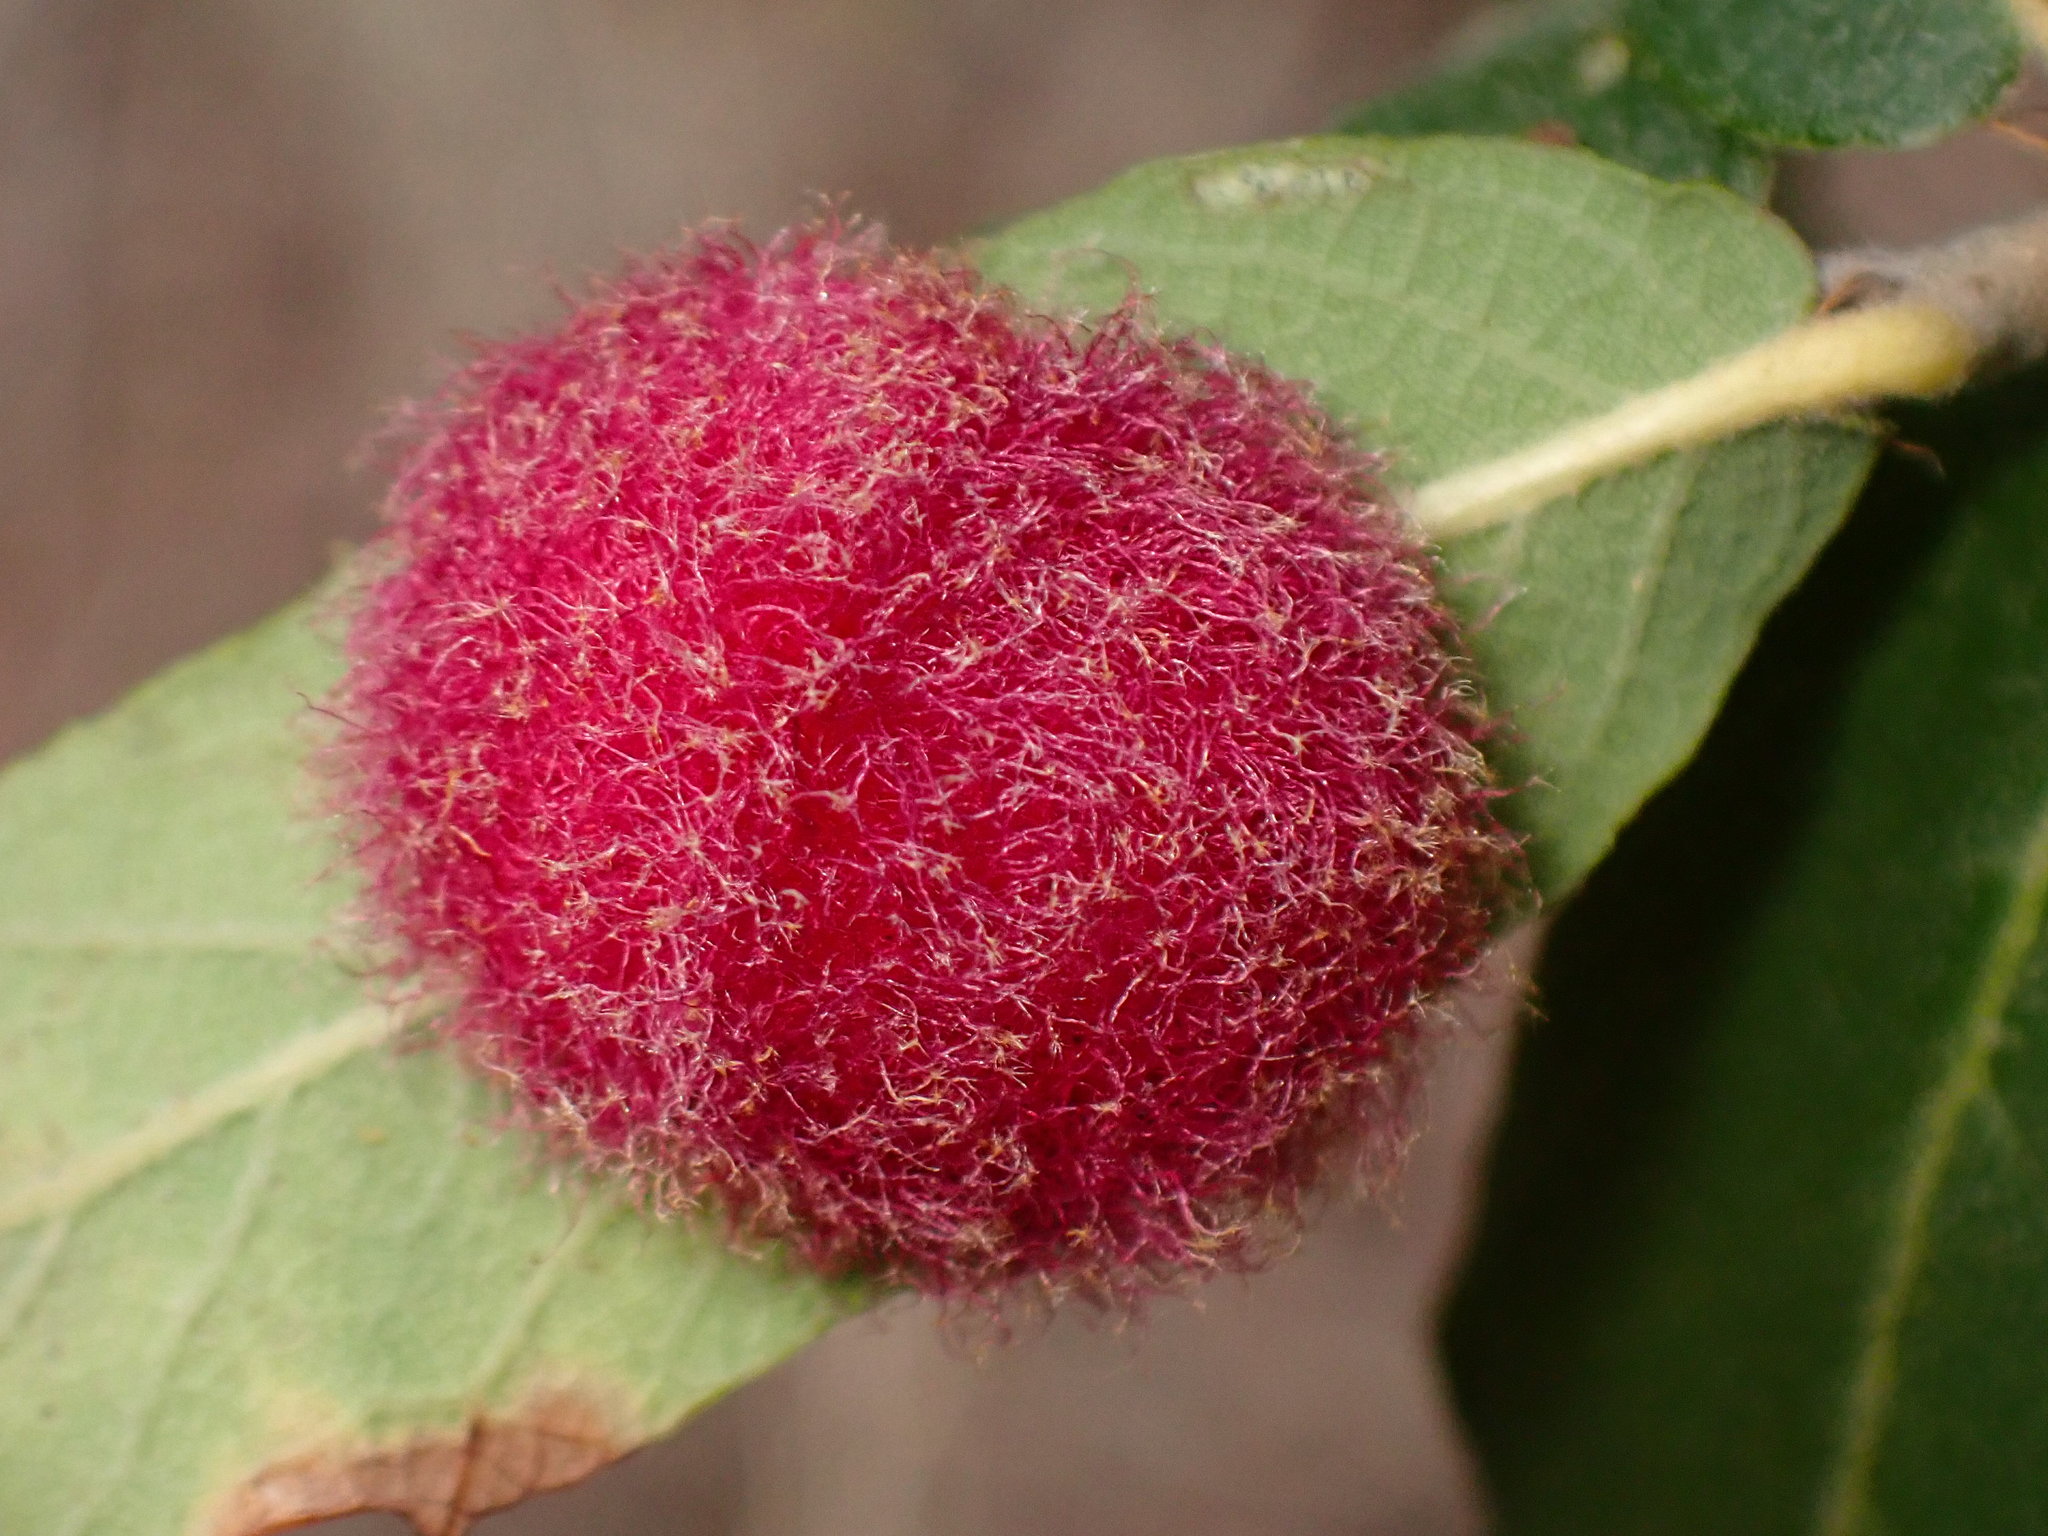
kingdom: Animalia
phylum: Arthropoda
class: Insecta
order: Hymenoptera
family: Cynipidae
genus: Cynips
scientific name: Cynips
